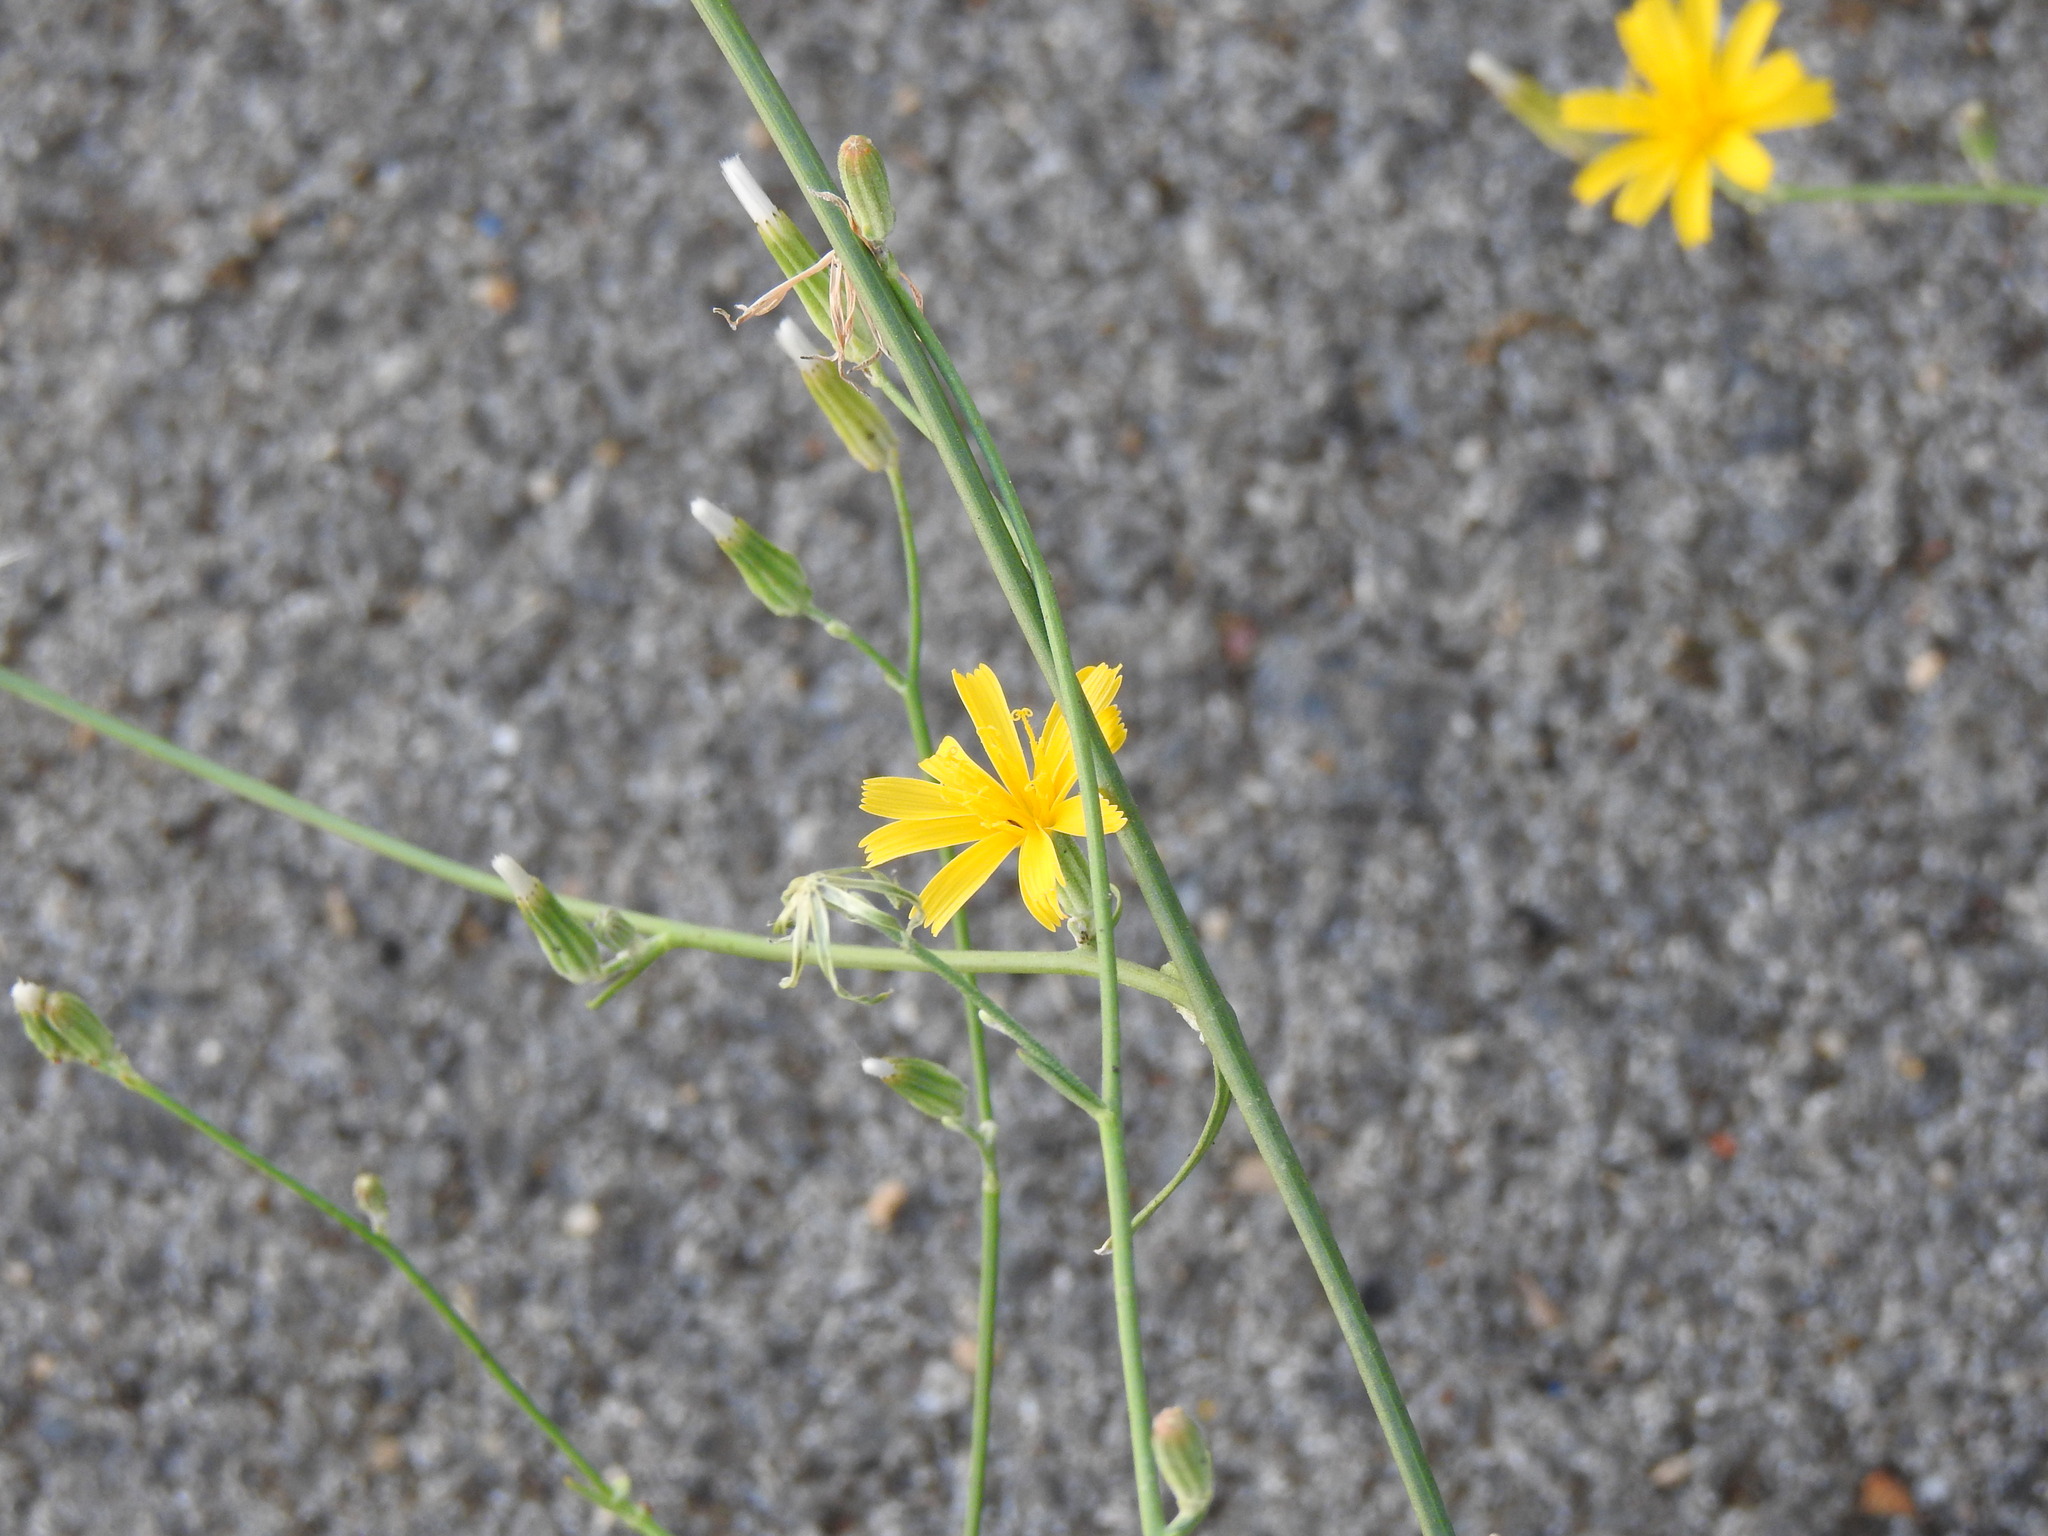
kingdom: Plantae
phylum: Tracheophyta
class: Magnoliopsida
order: Asterales
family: Asteraceae
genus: Chondrilla
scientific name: Chondrilla juncea
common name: Skeleton weed
